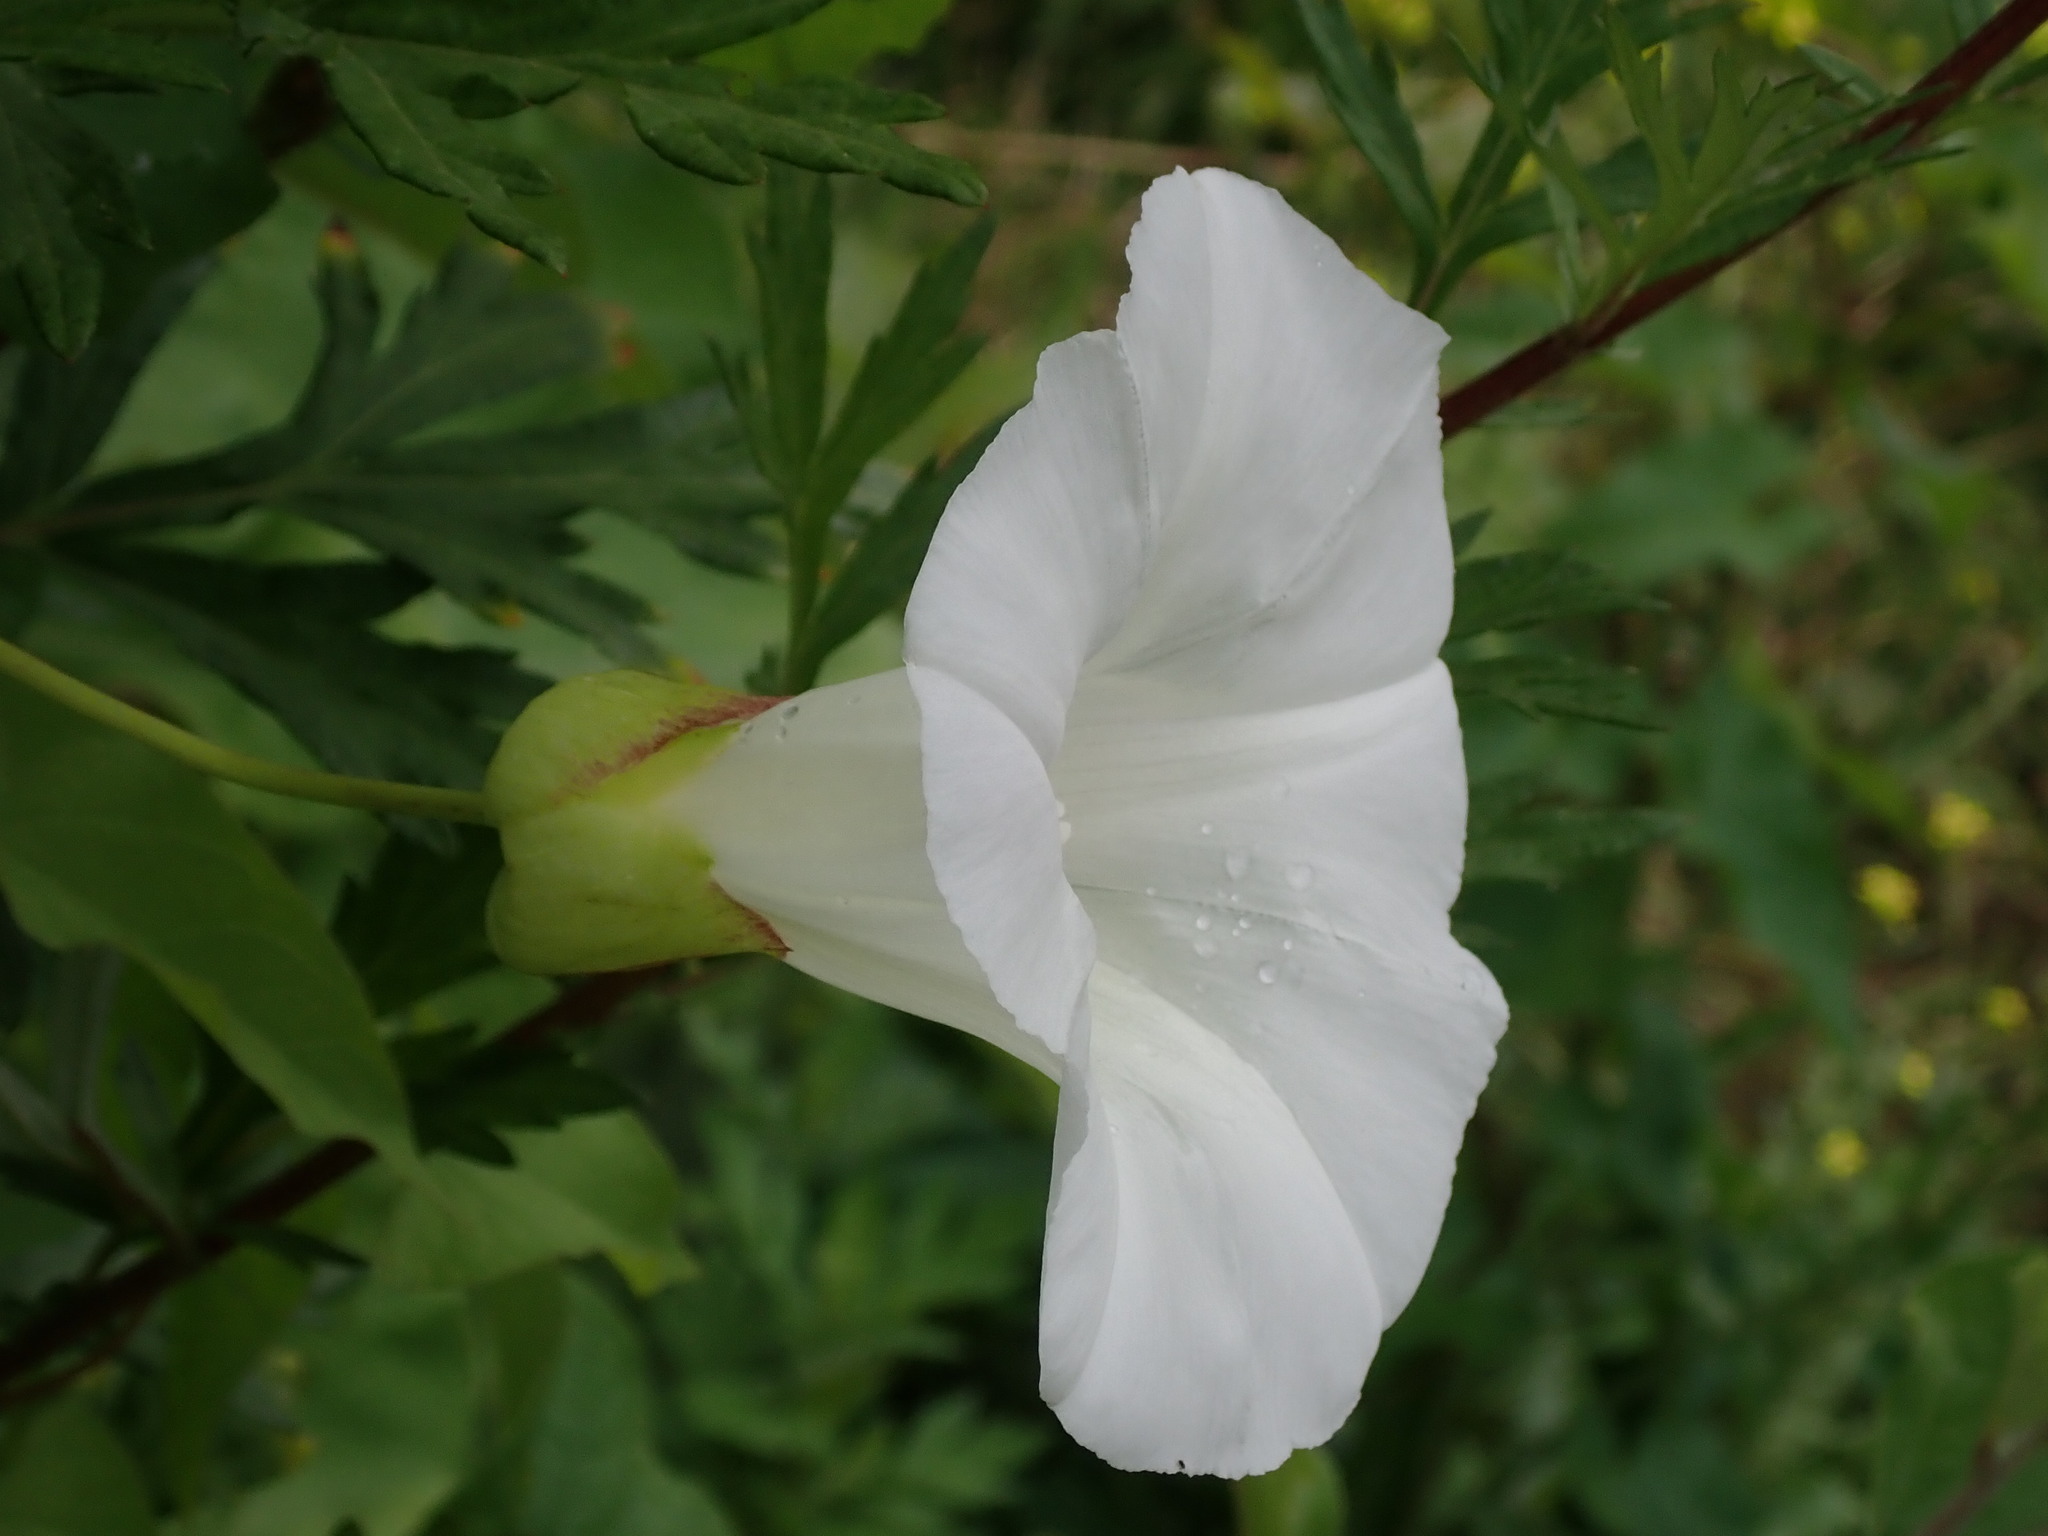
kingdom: Plantae
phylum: Tracheophyta
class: Magnoliopsida
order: Solanales
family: Convolvulaceae
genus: Calystegia
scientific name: Calystegia silvatica
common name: Large bindweed
